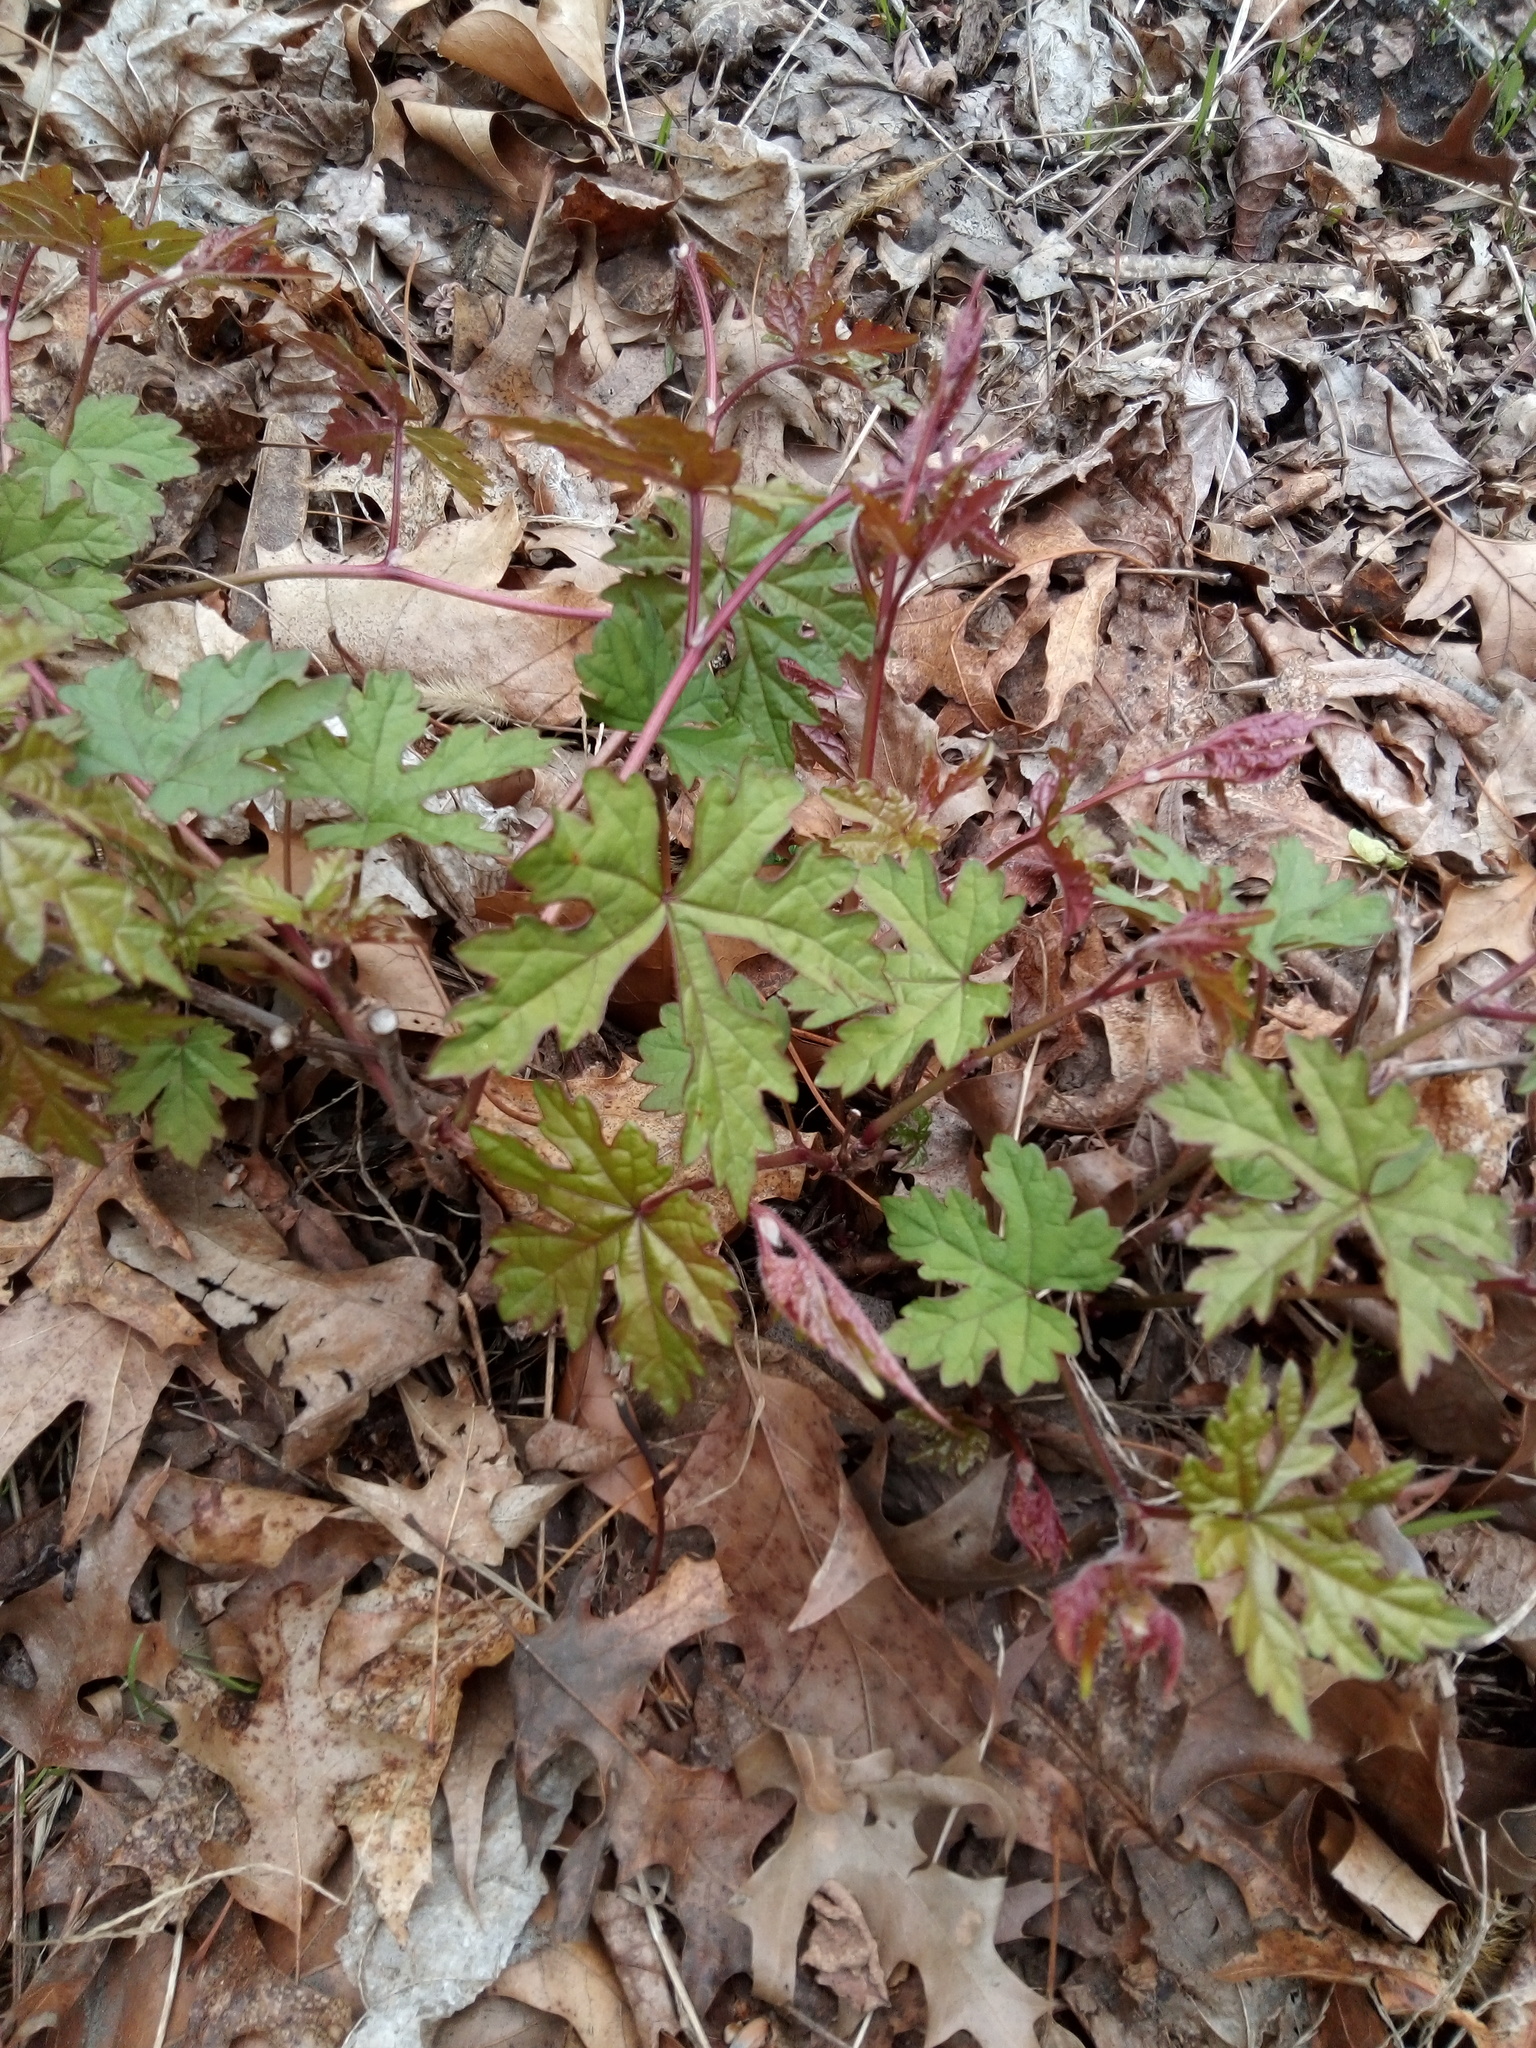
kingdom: Plantae
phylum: Tracheophyta
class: Magnoliopsida
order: Vitales
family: Vitaceae
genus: Ampelopsis
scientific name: Ampelopsis glandulosa
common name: Amur peppervine
